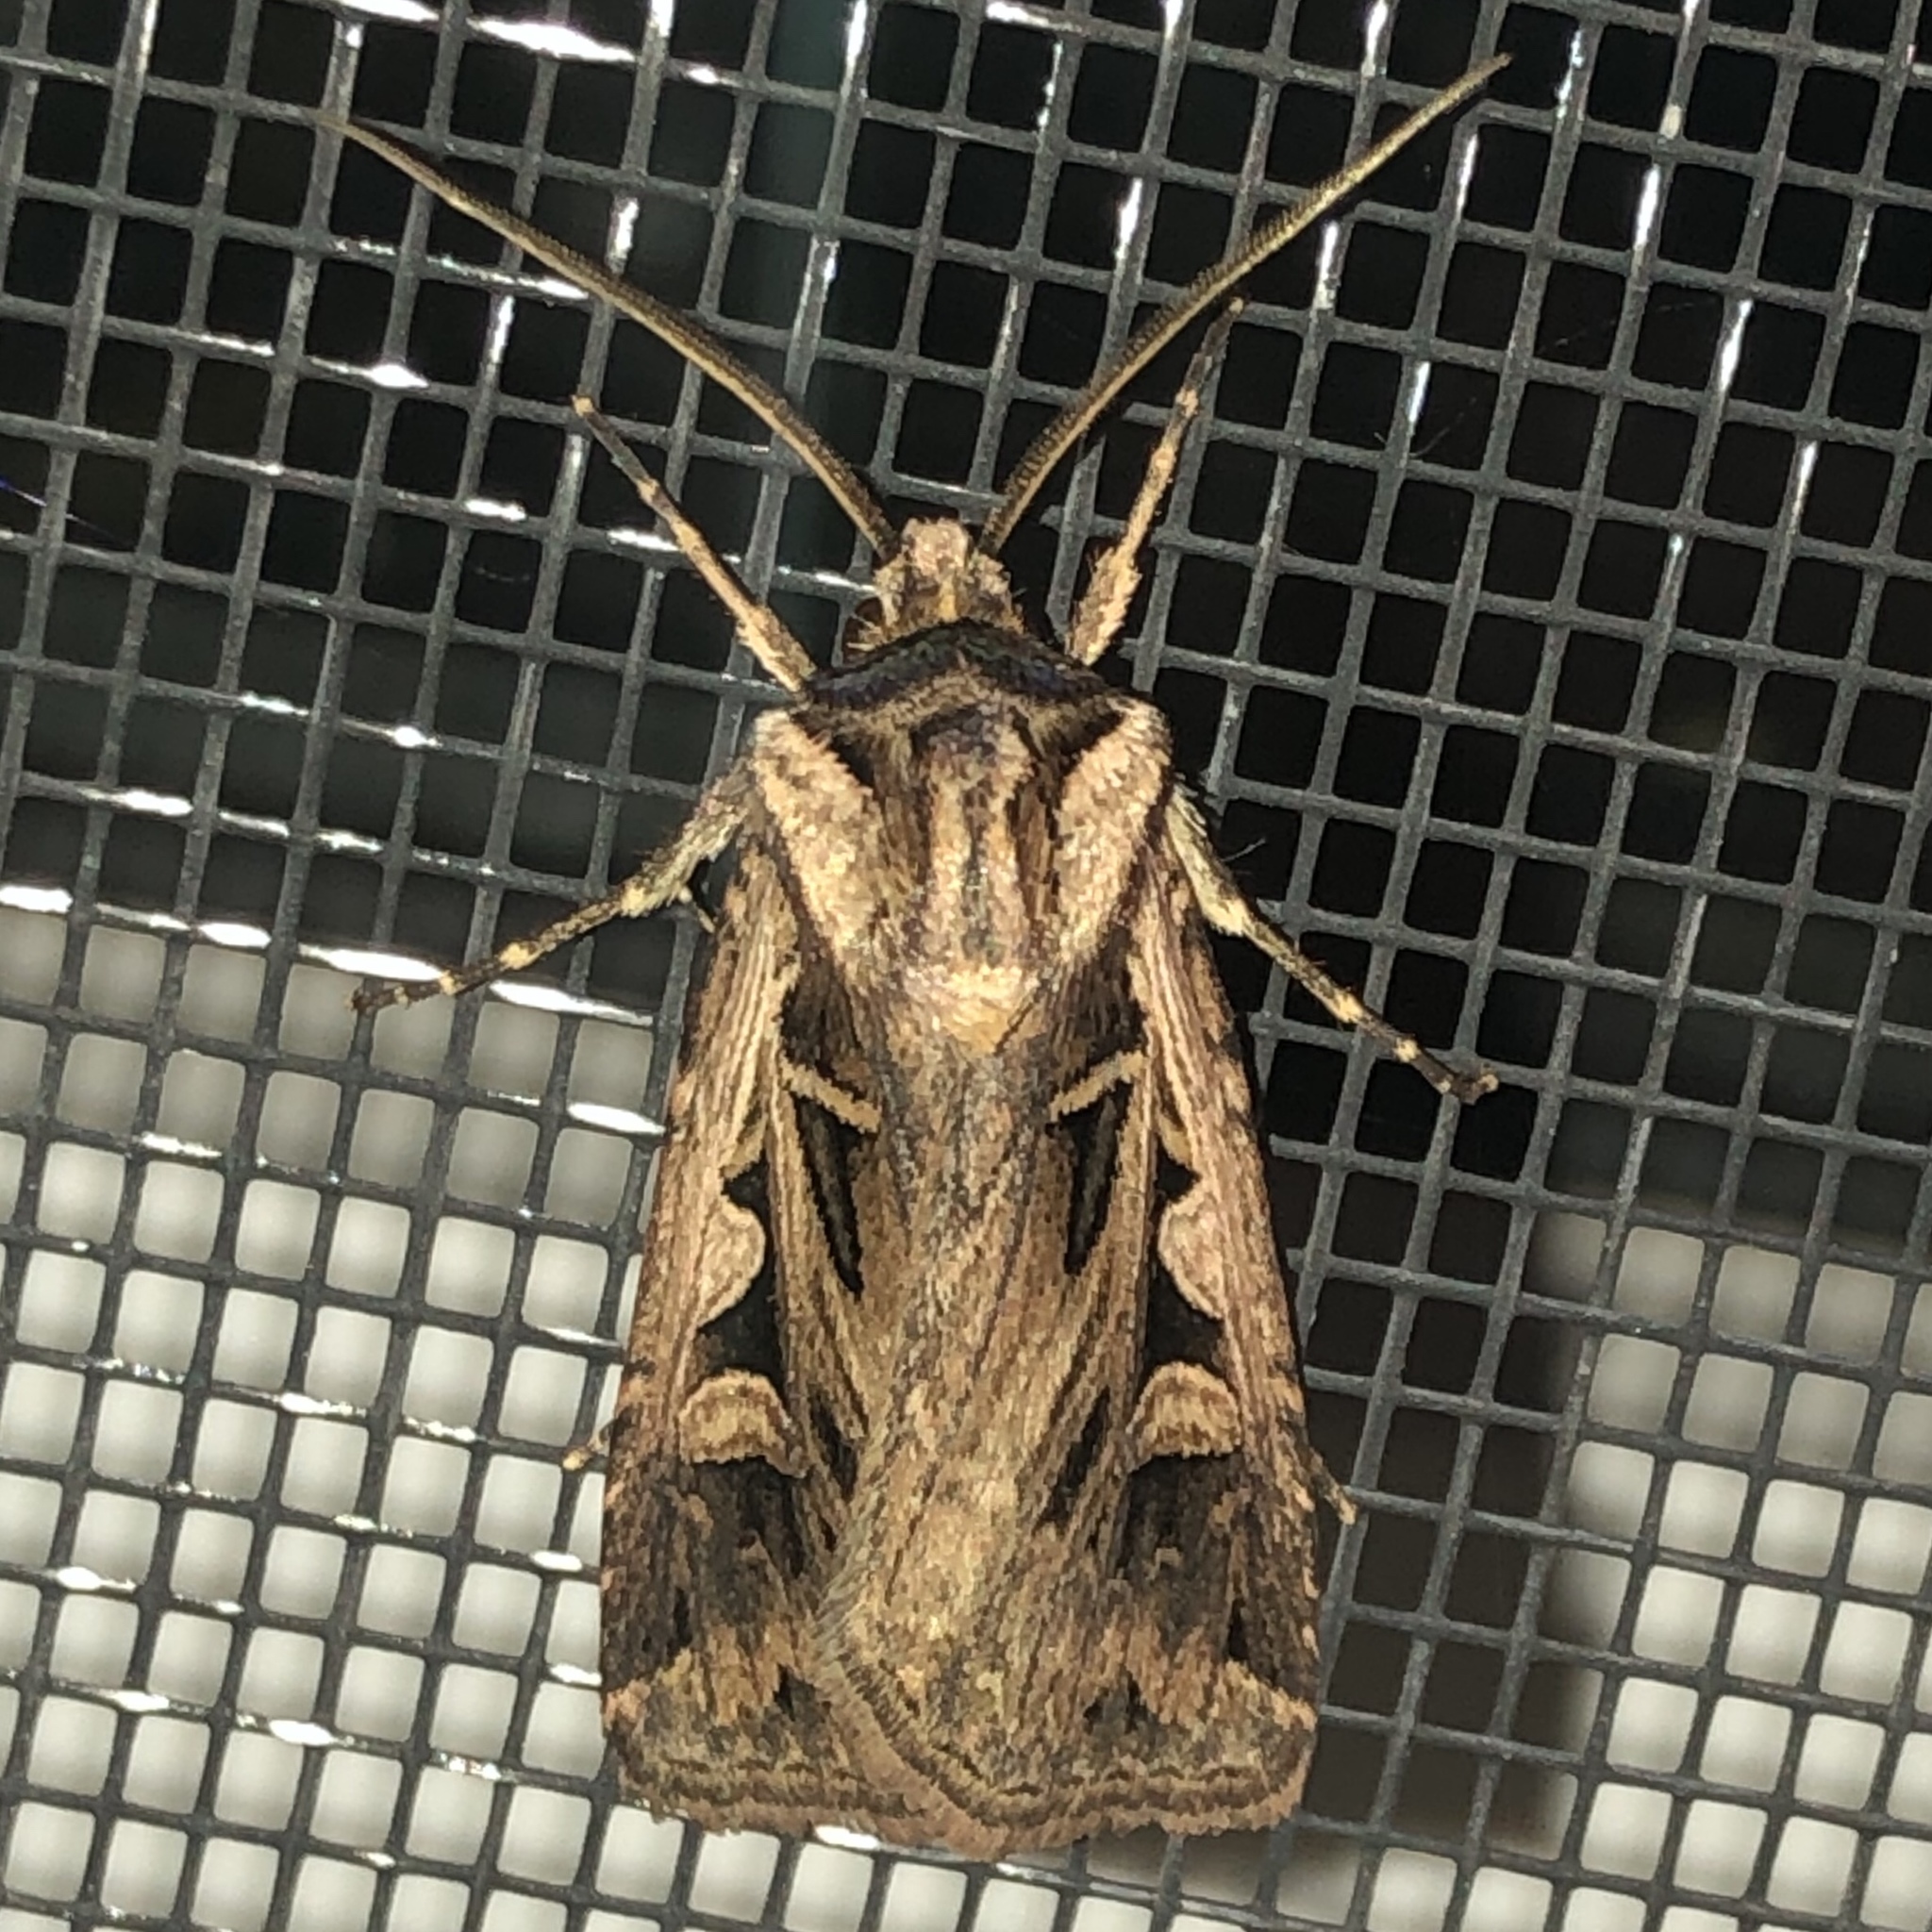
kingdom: Animalia
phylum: Arthropoda
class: Insecta
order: Lepidoptera
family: Noctuidae
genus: Feltia
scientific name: Feltia tricosa
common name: Confused dart moth
